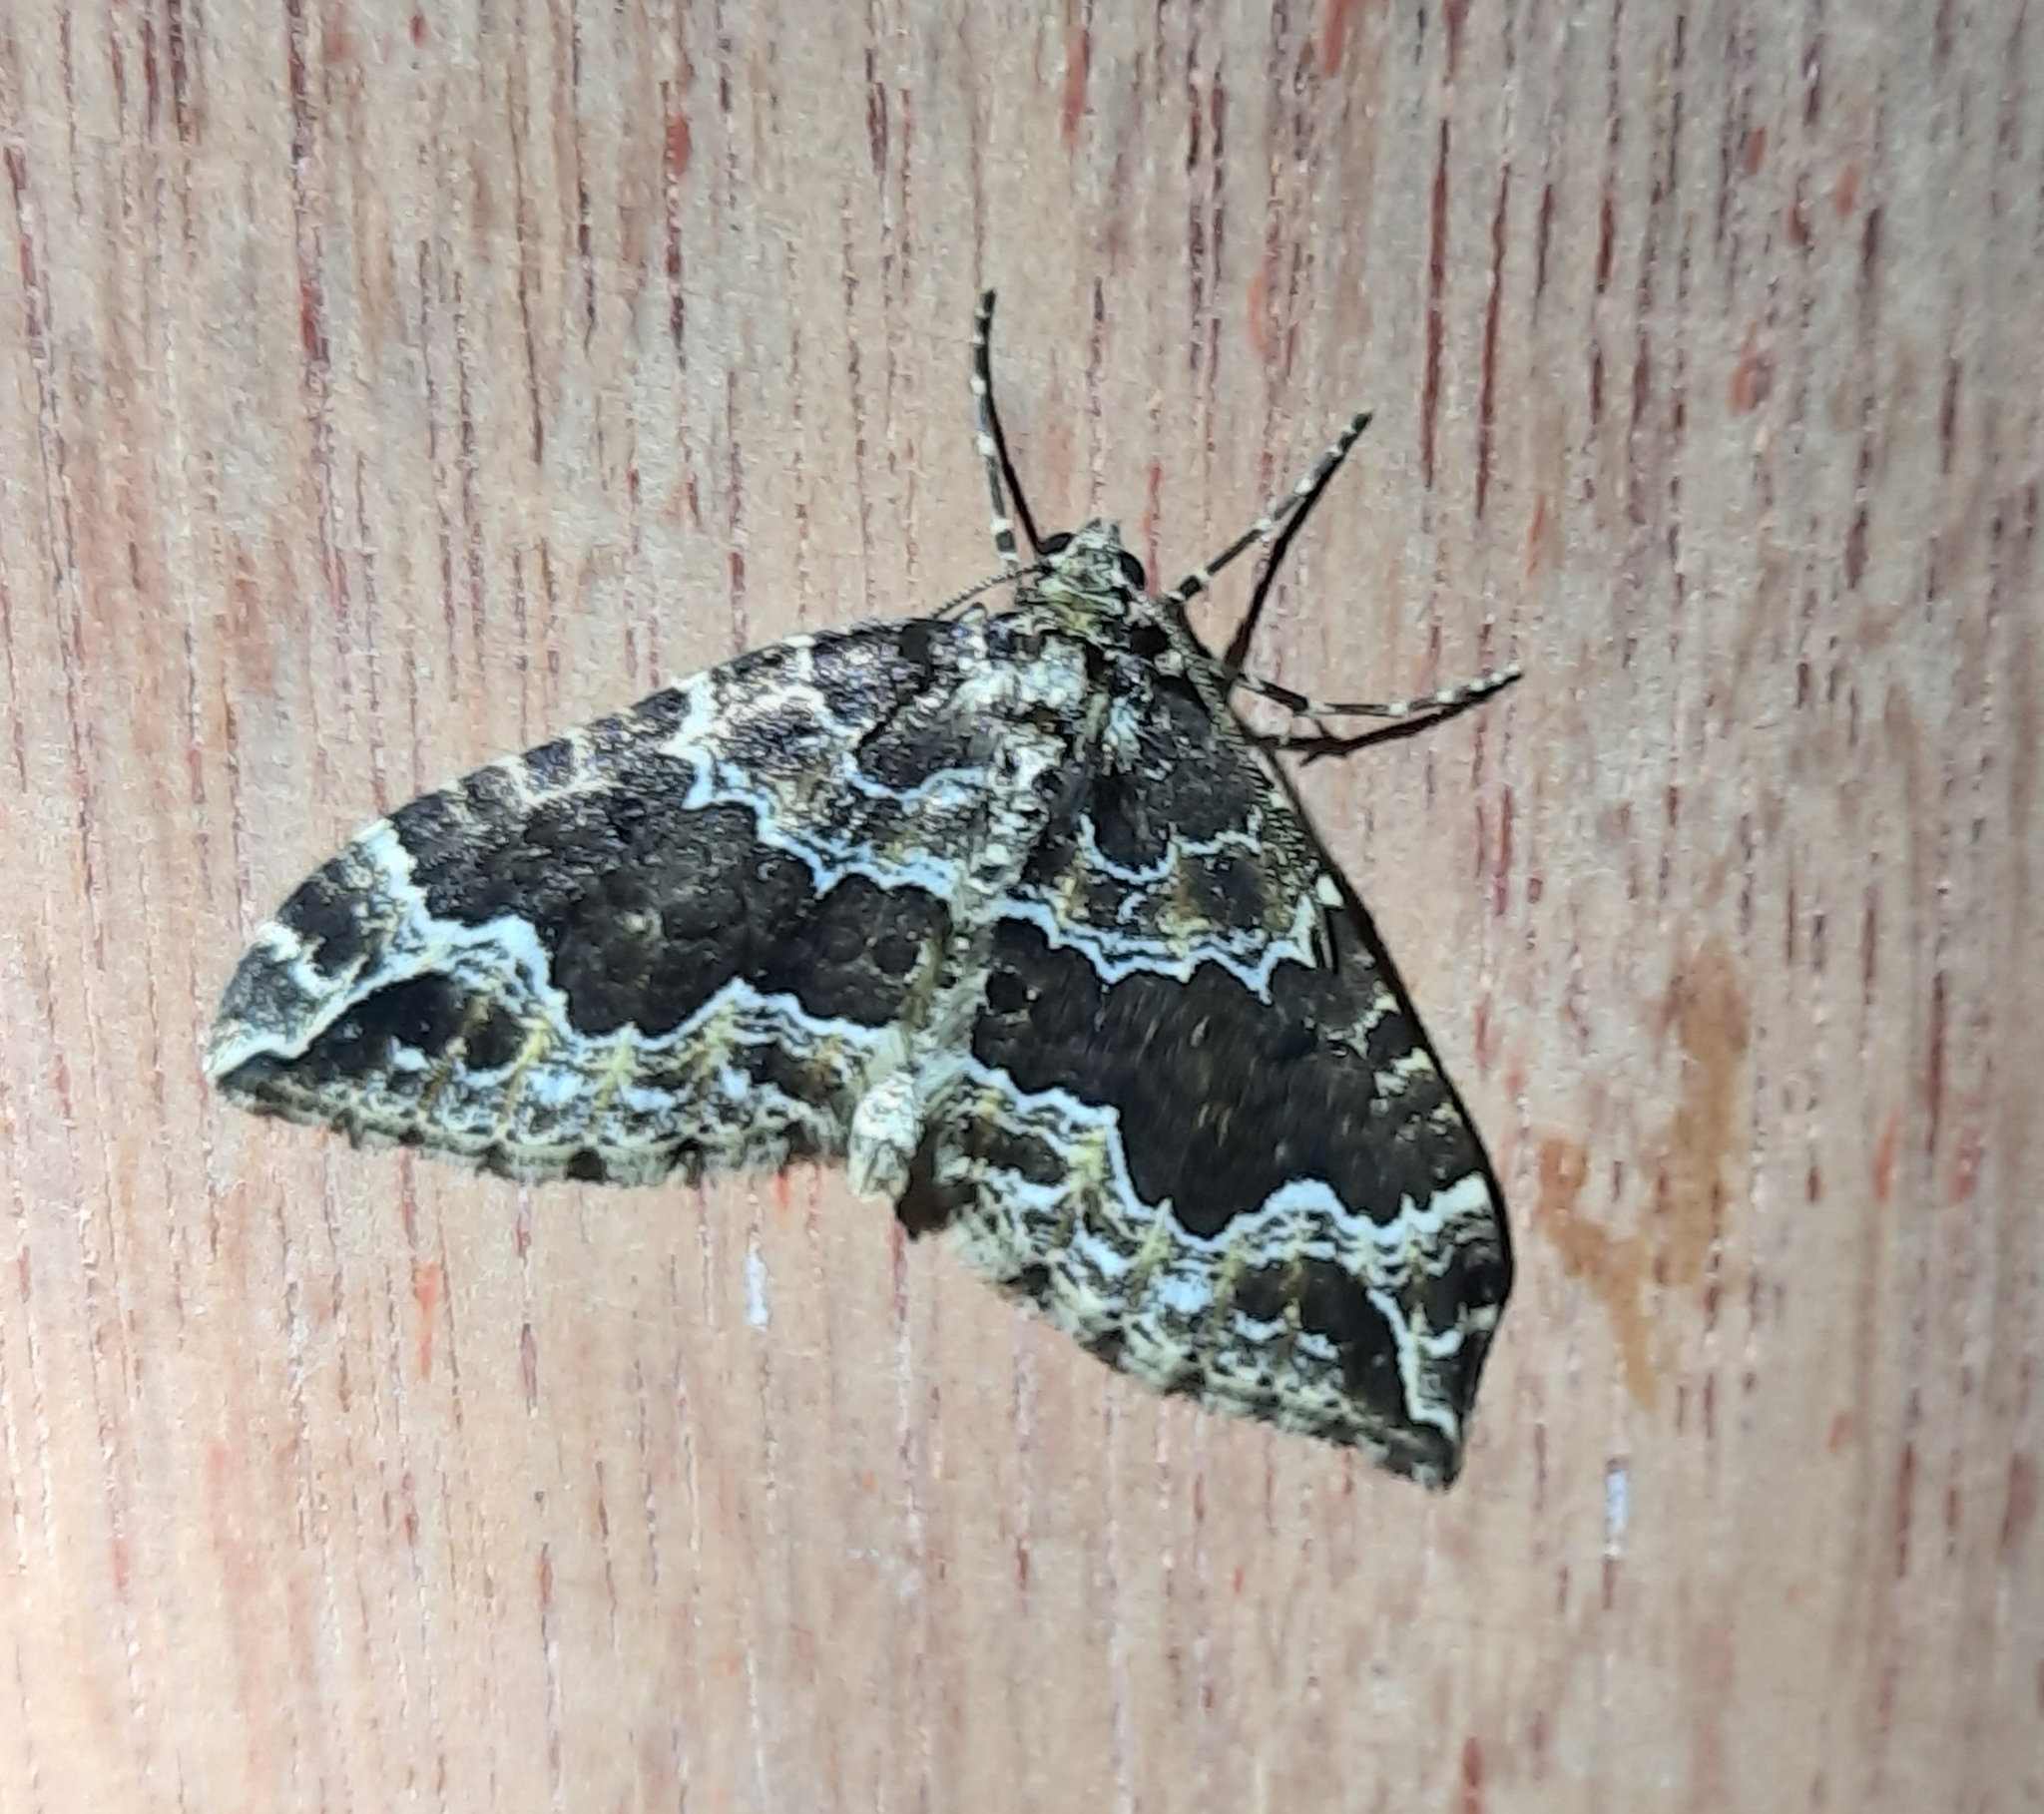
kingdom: Animalia
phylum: Arthropoda
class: Insecta
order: Lepidoptera
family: Geometridae
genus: Lampropteryx
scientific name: Lampropteryx suffumata
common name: Water carpet
